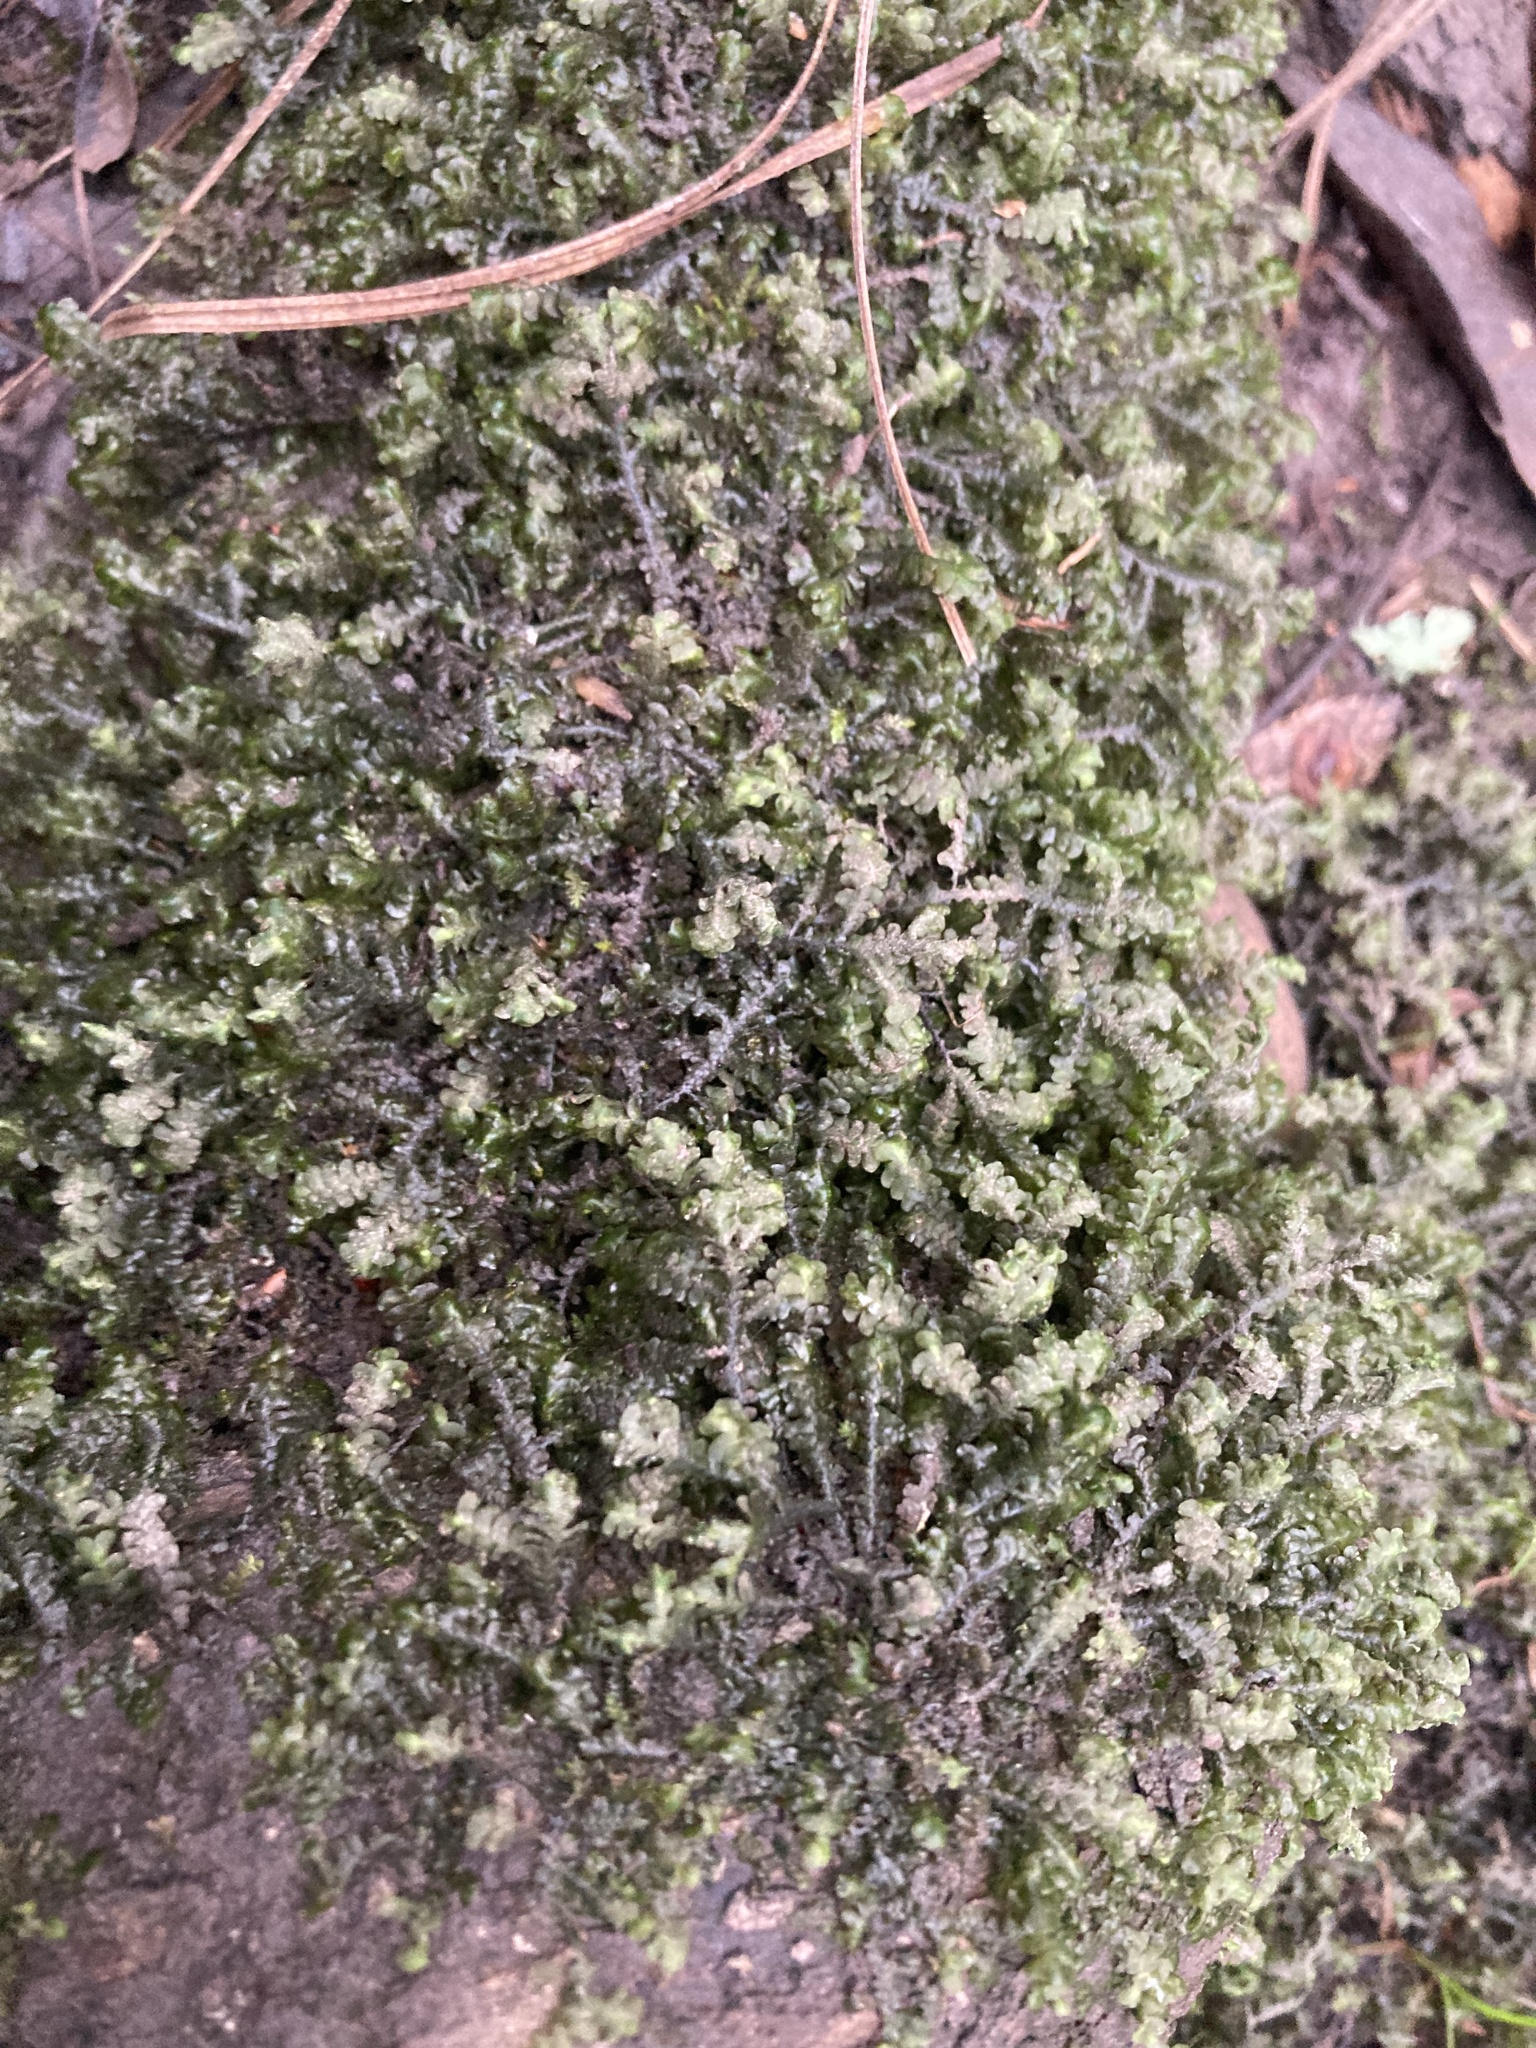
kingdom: Plantae
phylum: Marchantiophyta
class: Jungermanniopsida
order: Porellales
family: Porellaceae
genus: Porella
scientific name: Porella pinnata
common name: Pinnate scalewort
